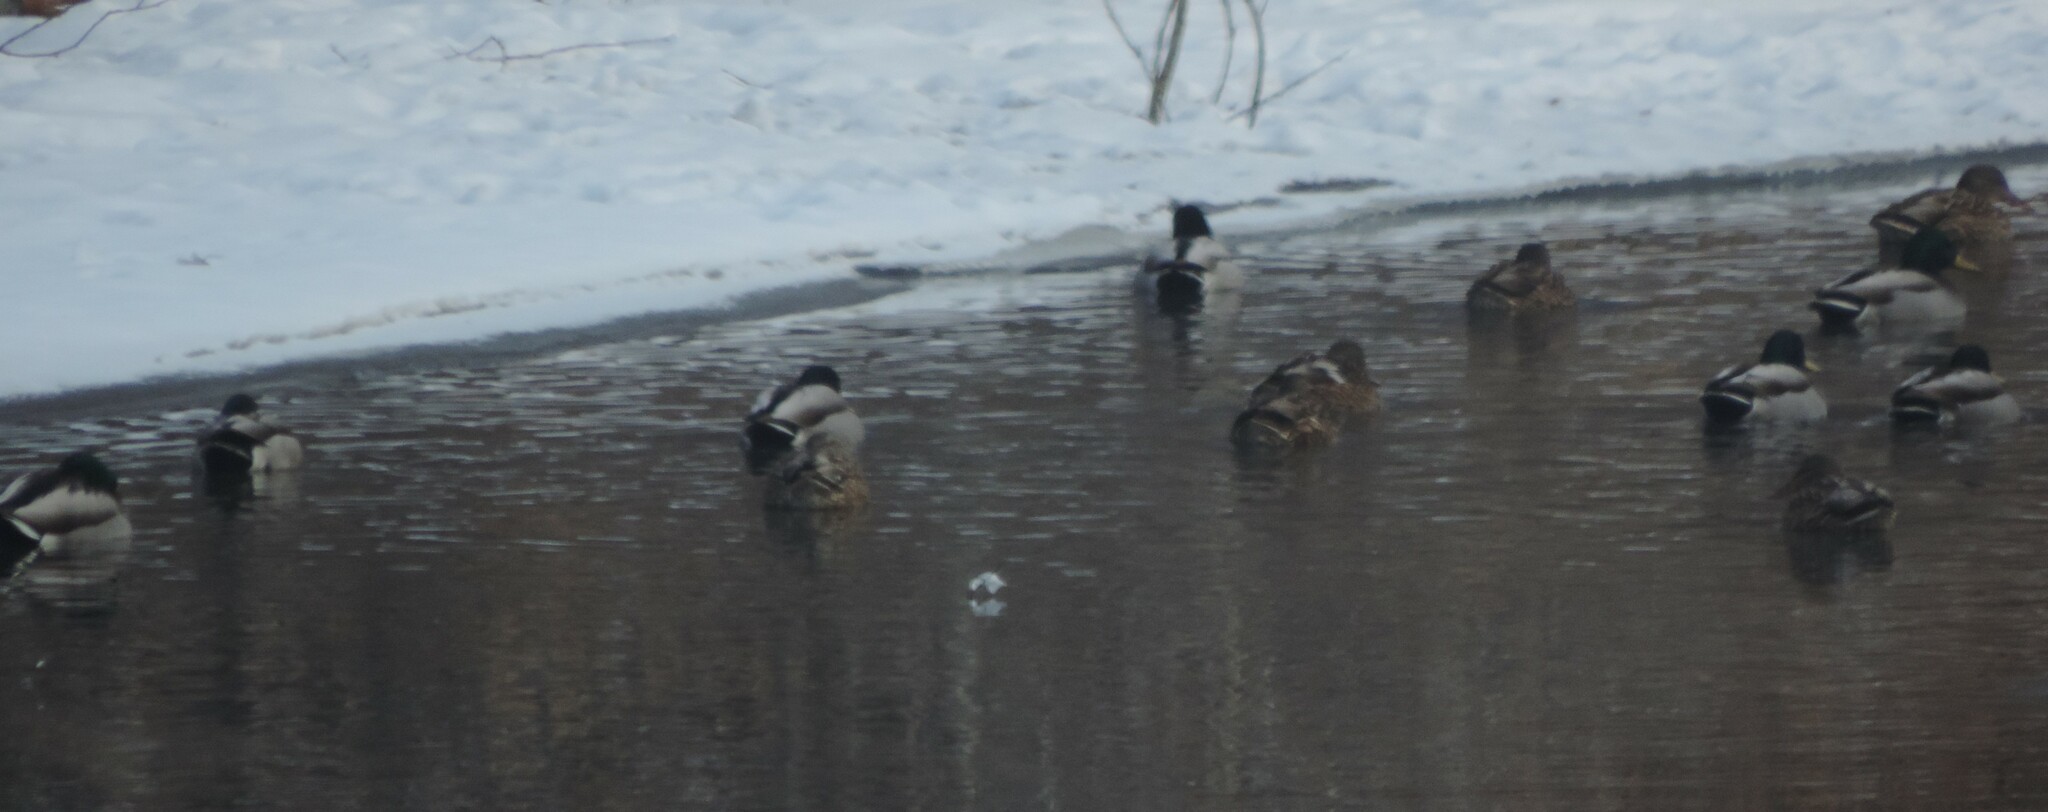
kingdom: Animalia
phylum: Chordata
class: Aves
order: Anseriformes
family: Anatidae
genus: Anas
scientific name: Anas platyrhynchos
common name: Mallard
